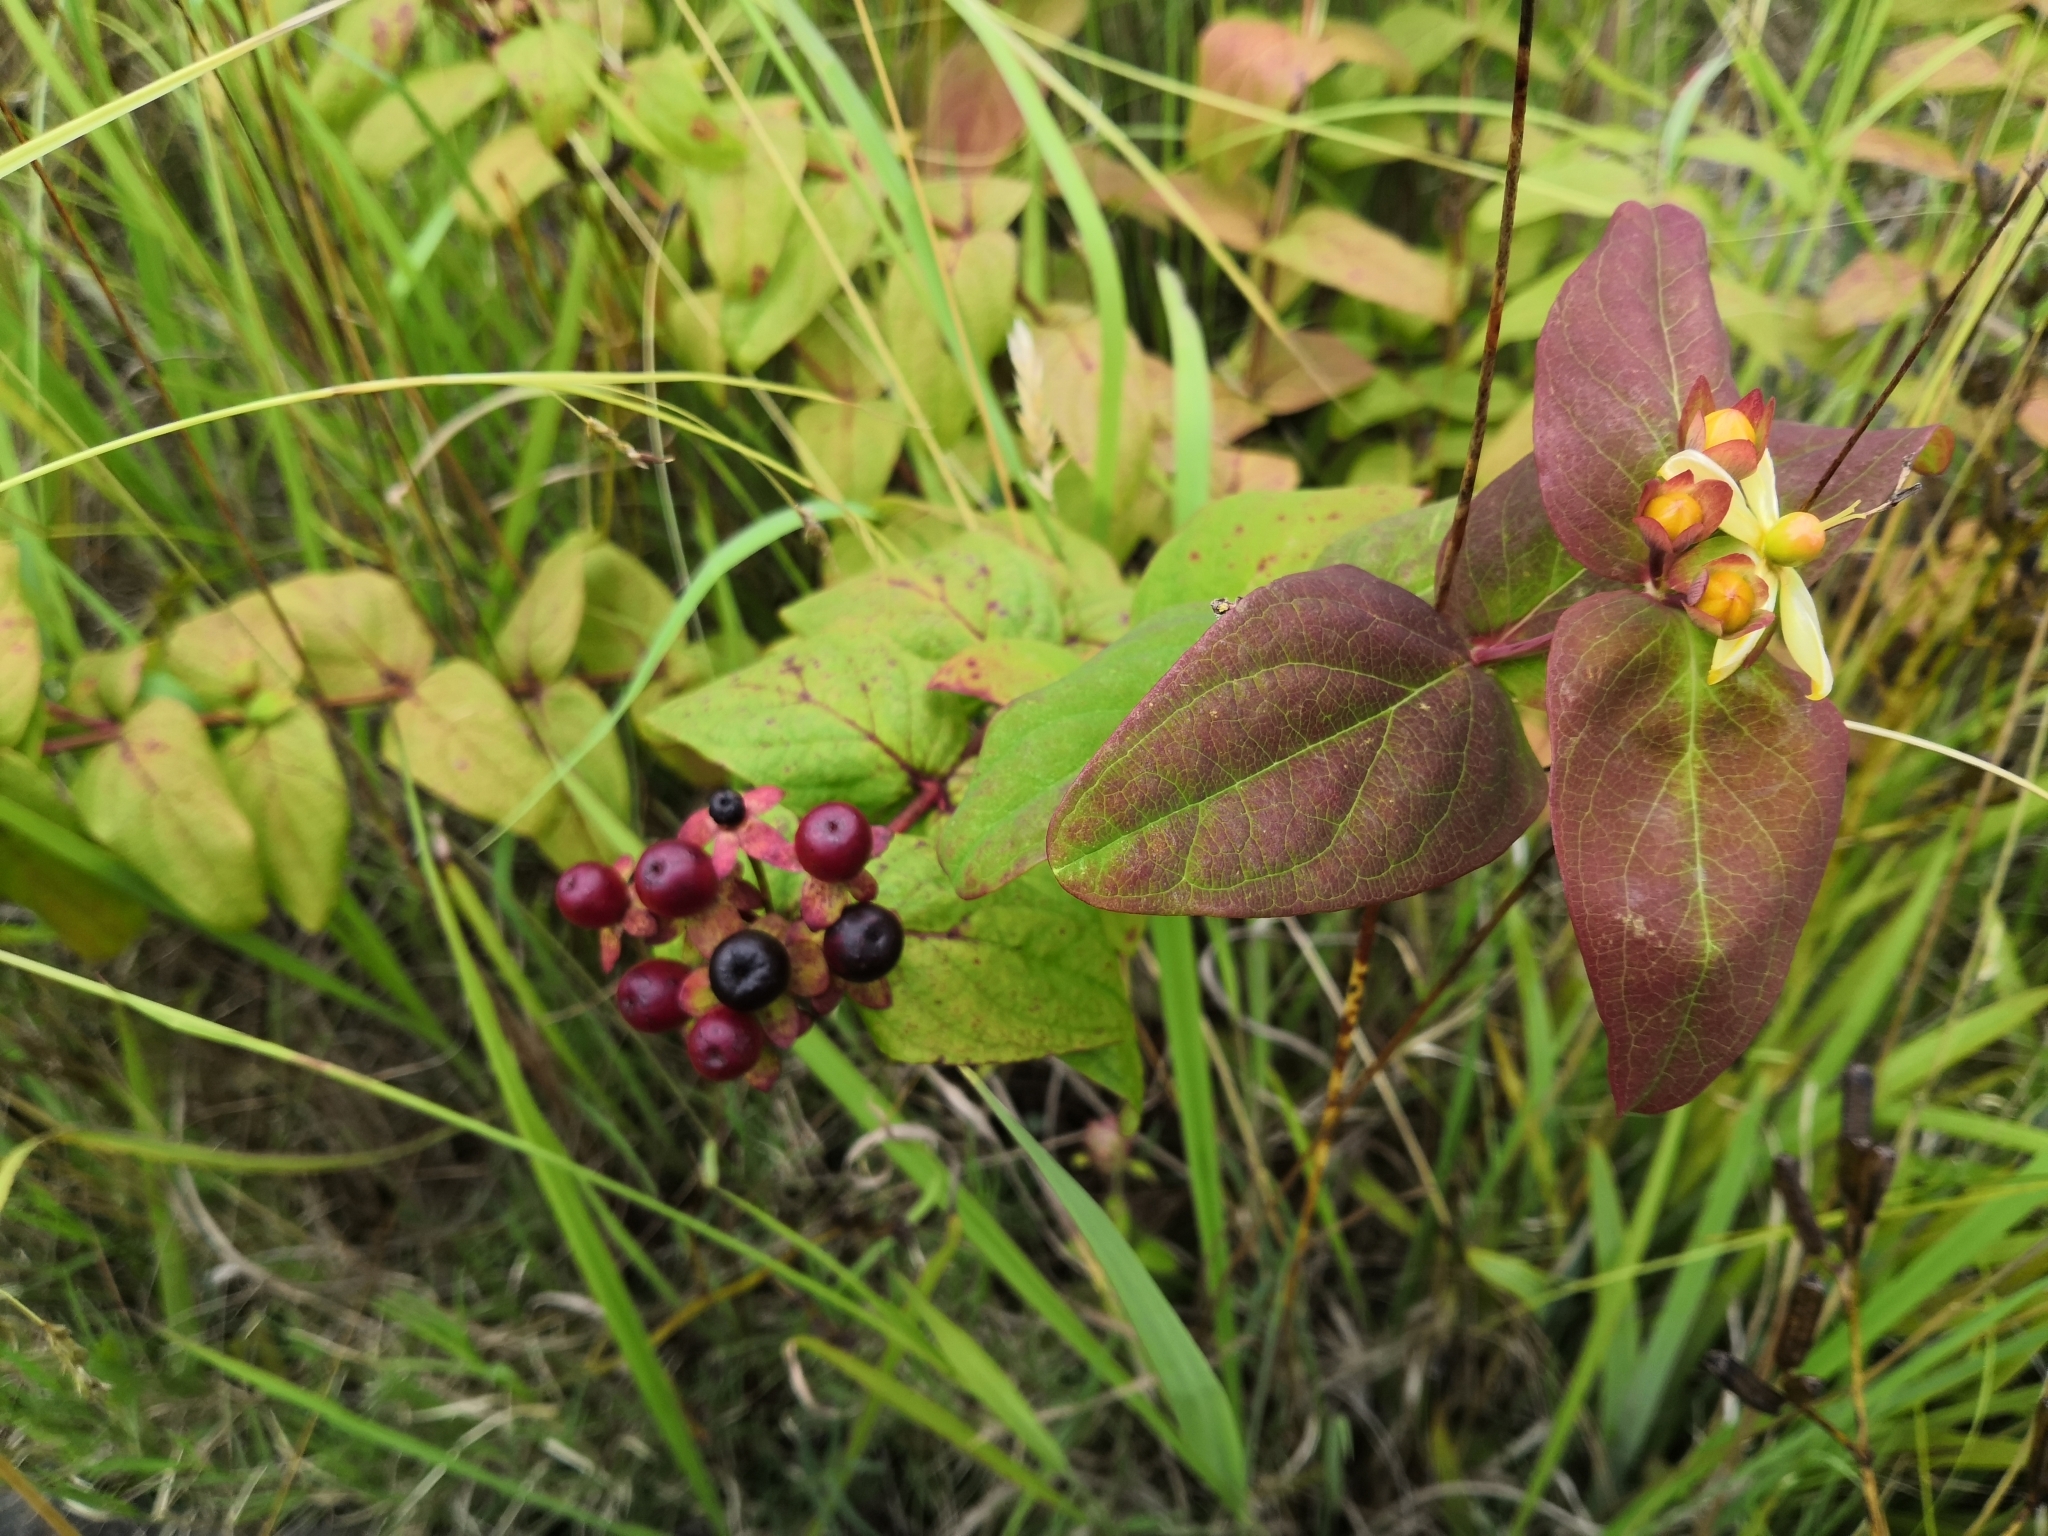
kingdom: Plantae
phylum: Tracheophyta
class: Magnoliopsida
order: Malpighiales
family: Hypericaceae
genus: Hypericum
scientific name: Hypericum androsaemum
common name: Sweet-amber
